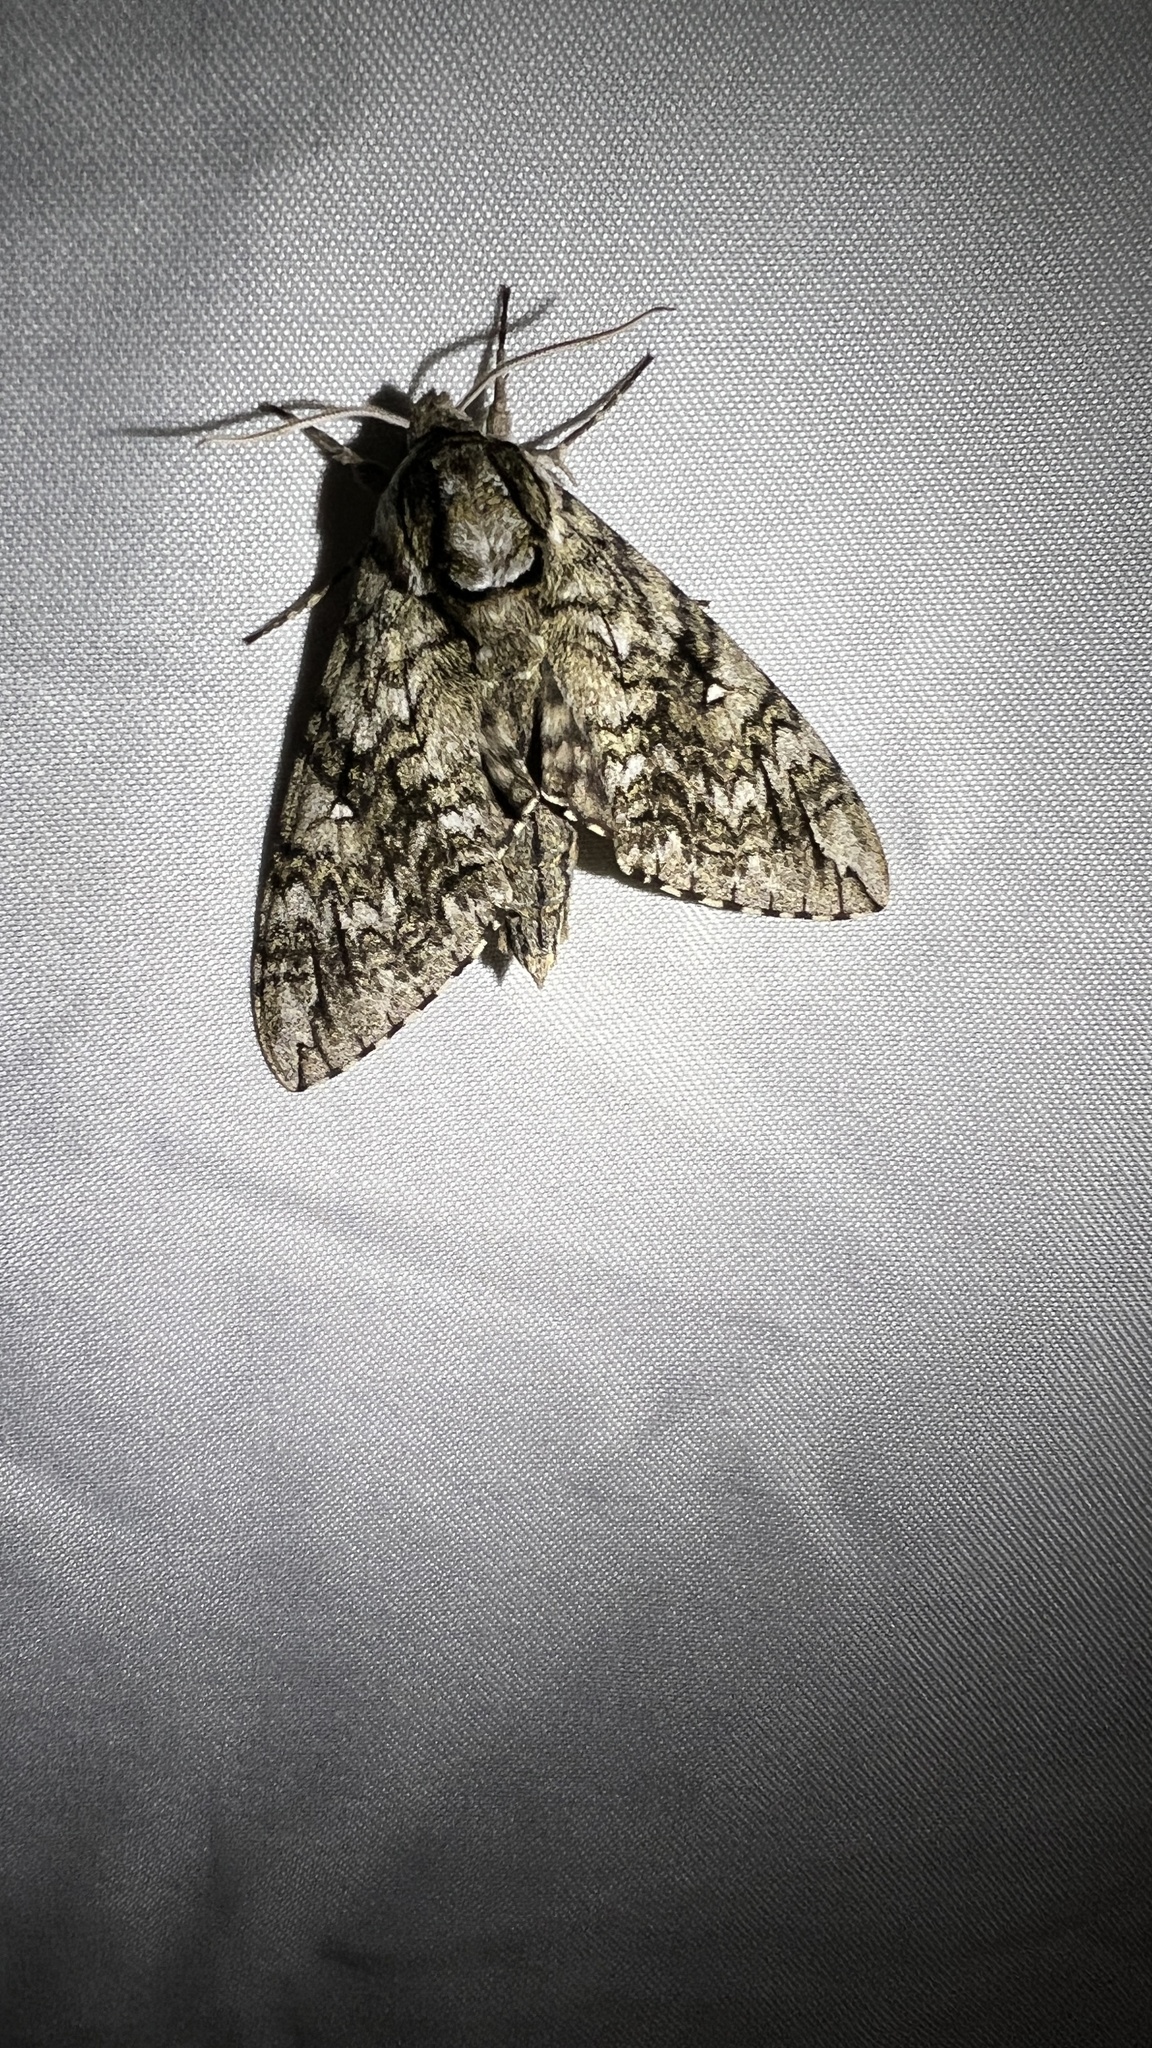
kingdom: Animalia
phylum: Arthropoda
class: Insecta
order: Lepidoptera
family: Sphingidae
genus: Ceratomia
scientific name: Ceratomia undulosa
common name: Waved sphinx
